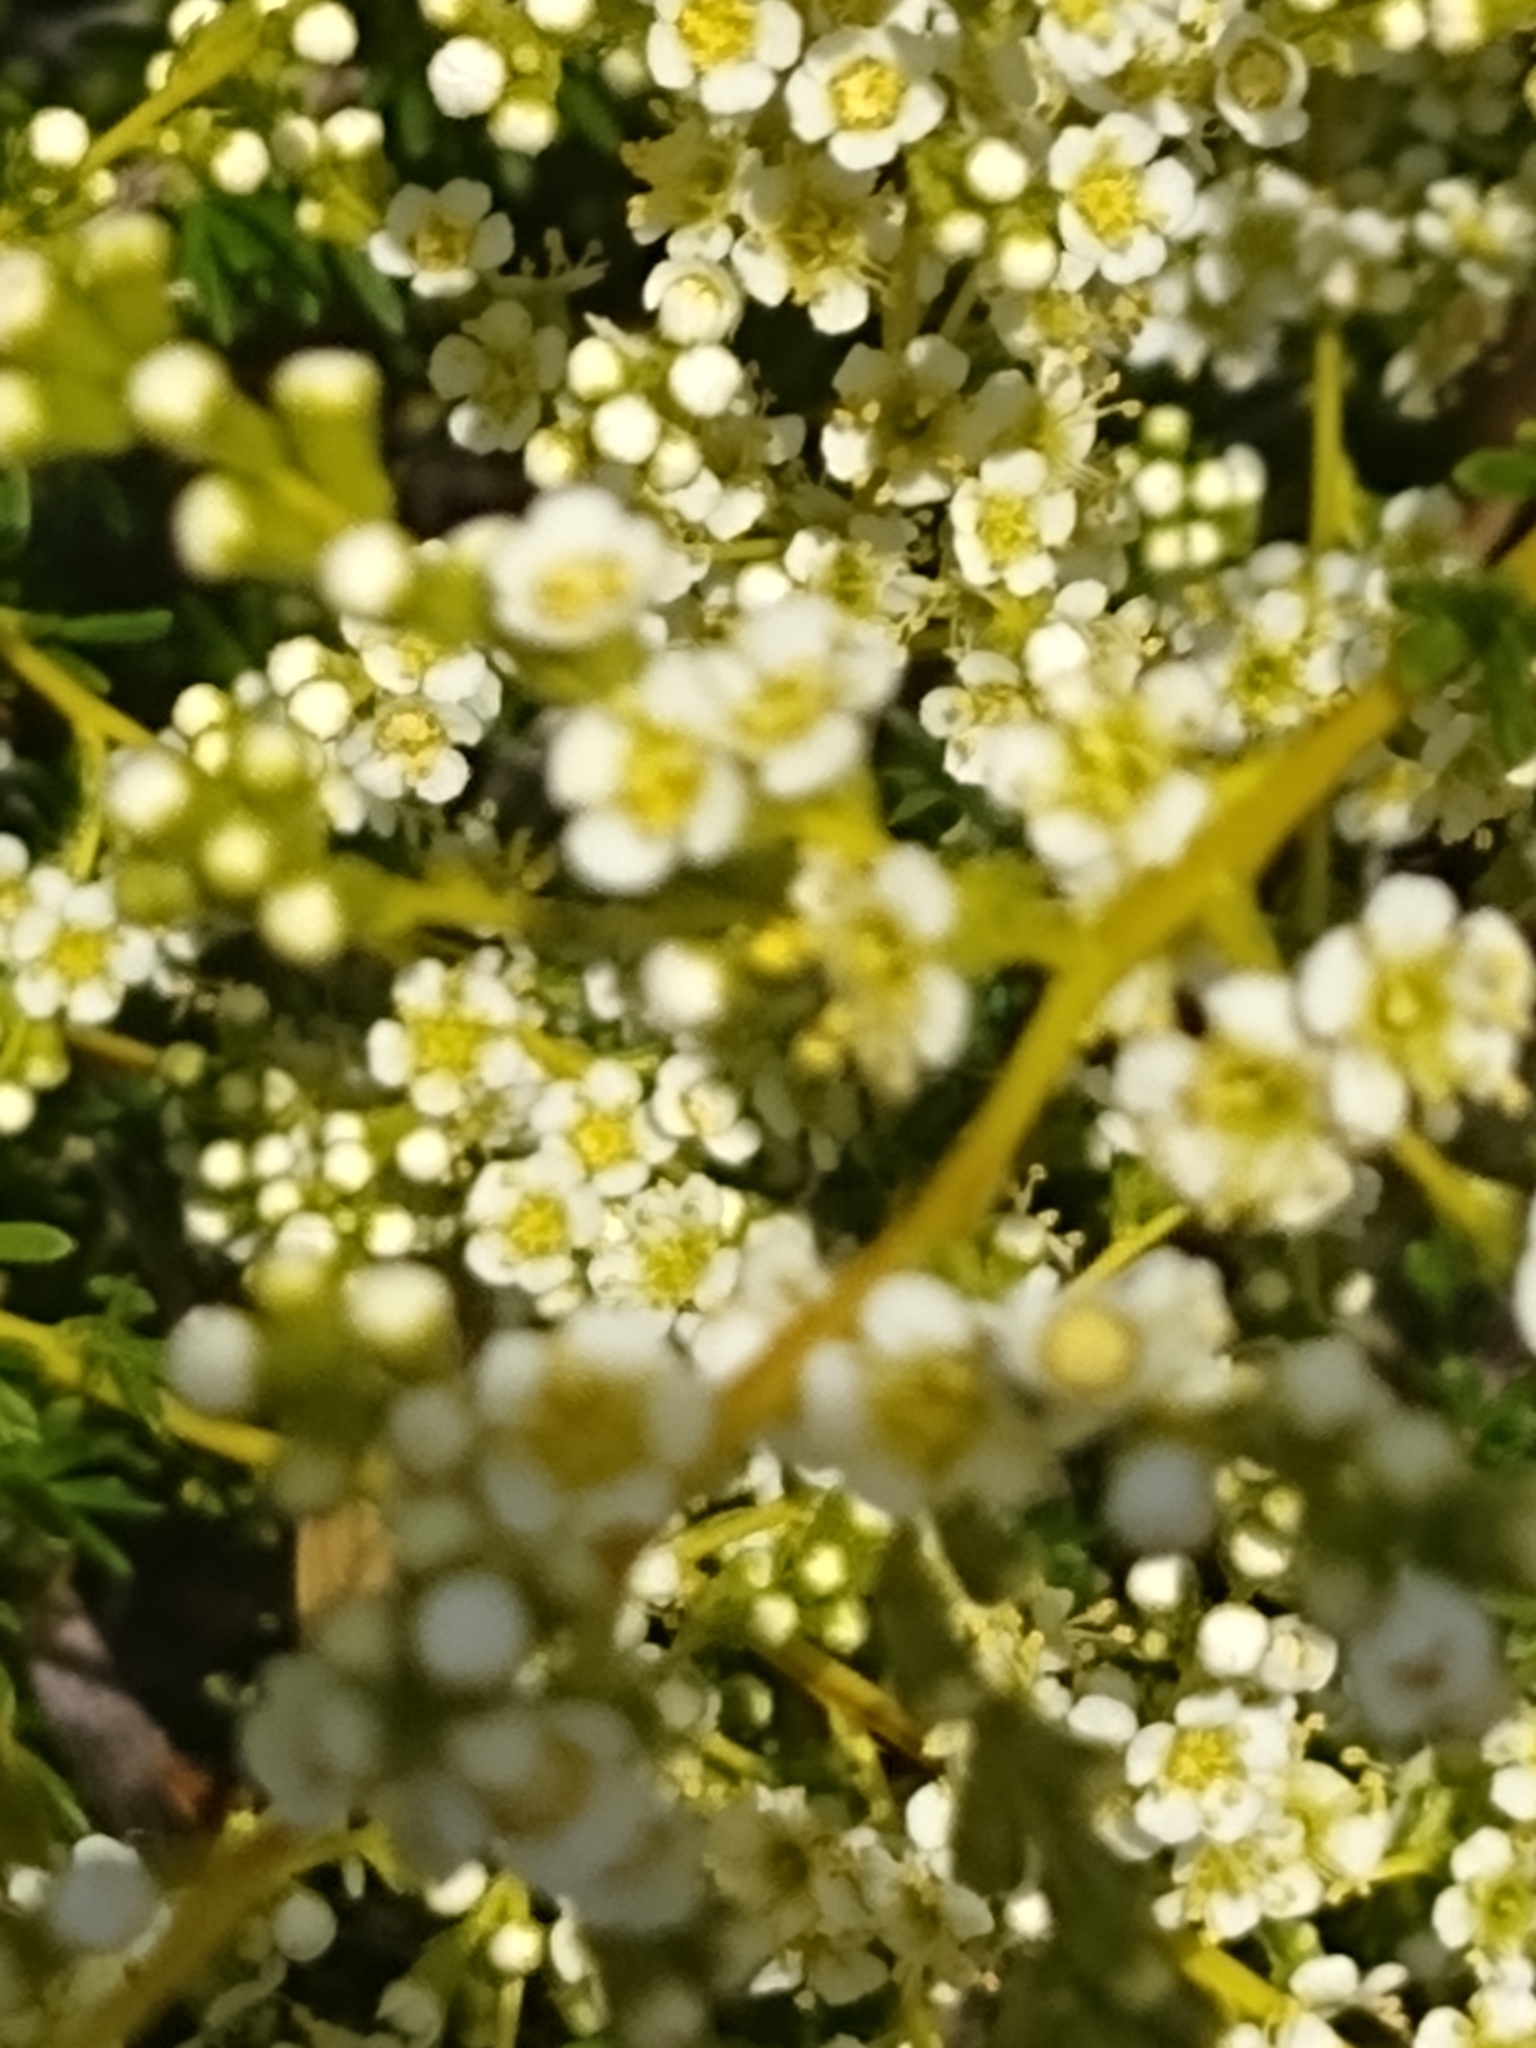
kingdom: Plantae
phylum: Tracheophyta
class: Magnoliopsida
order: Rosales
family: Rosaceae
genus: Adenostoma
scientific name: Adenostoma fasciculatum
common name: Chamise
